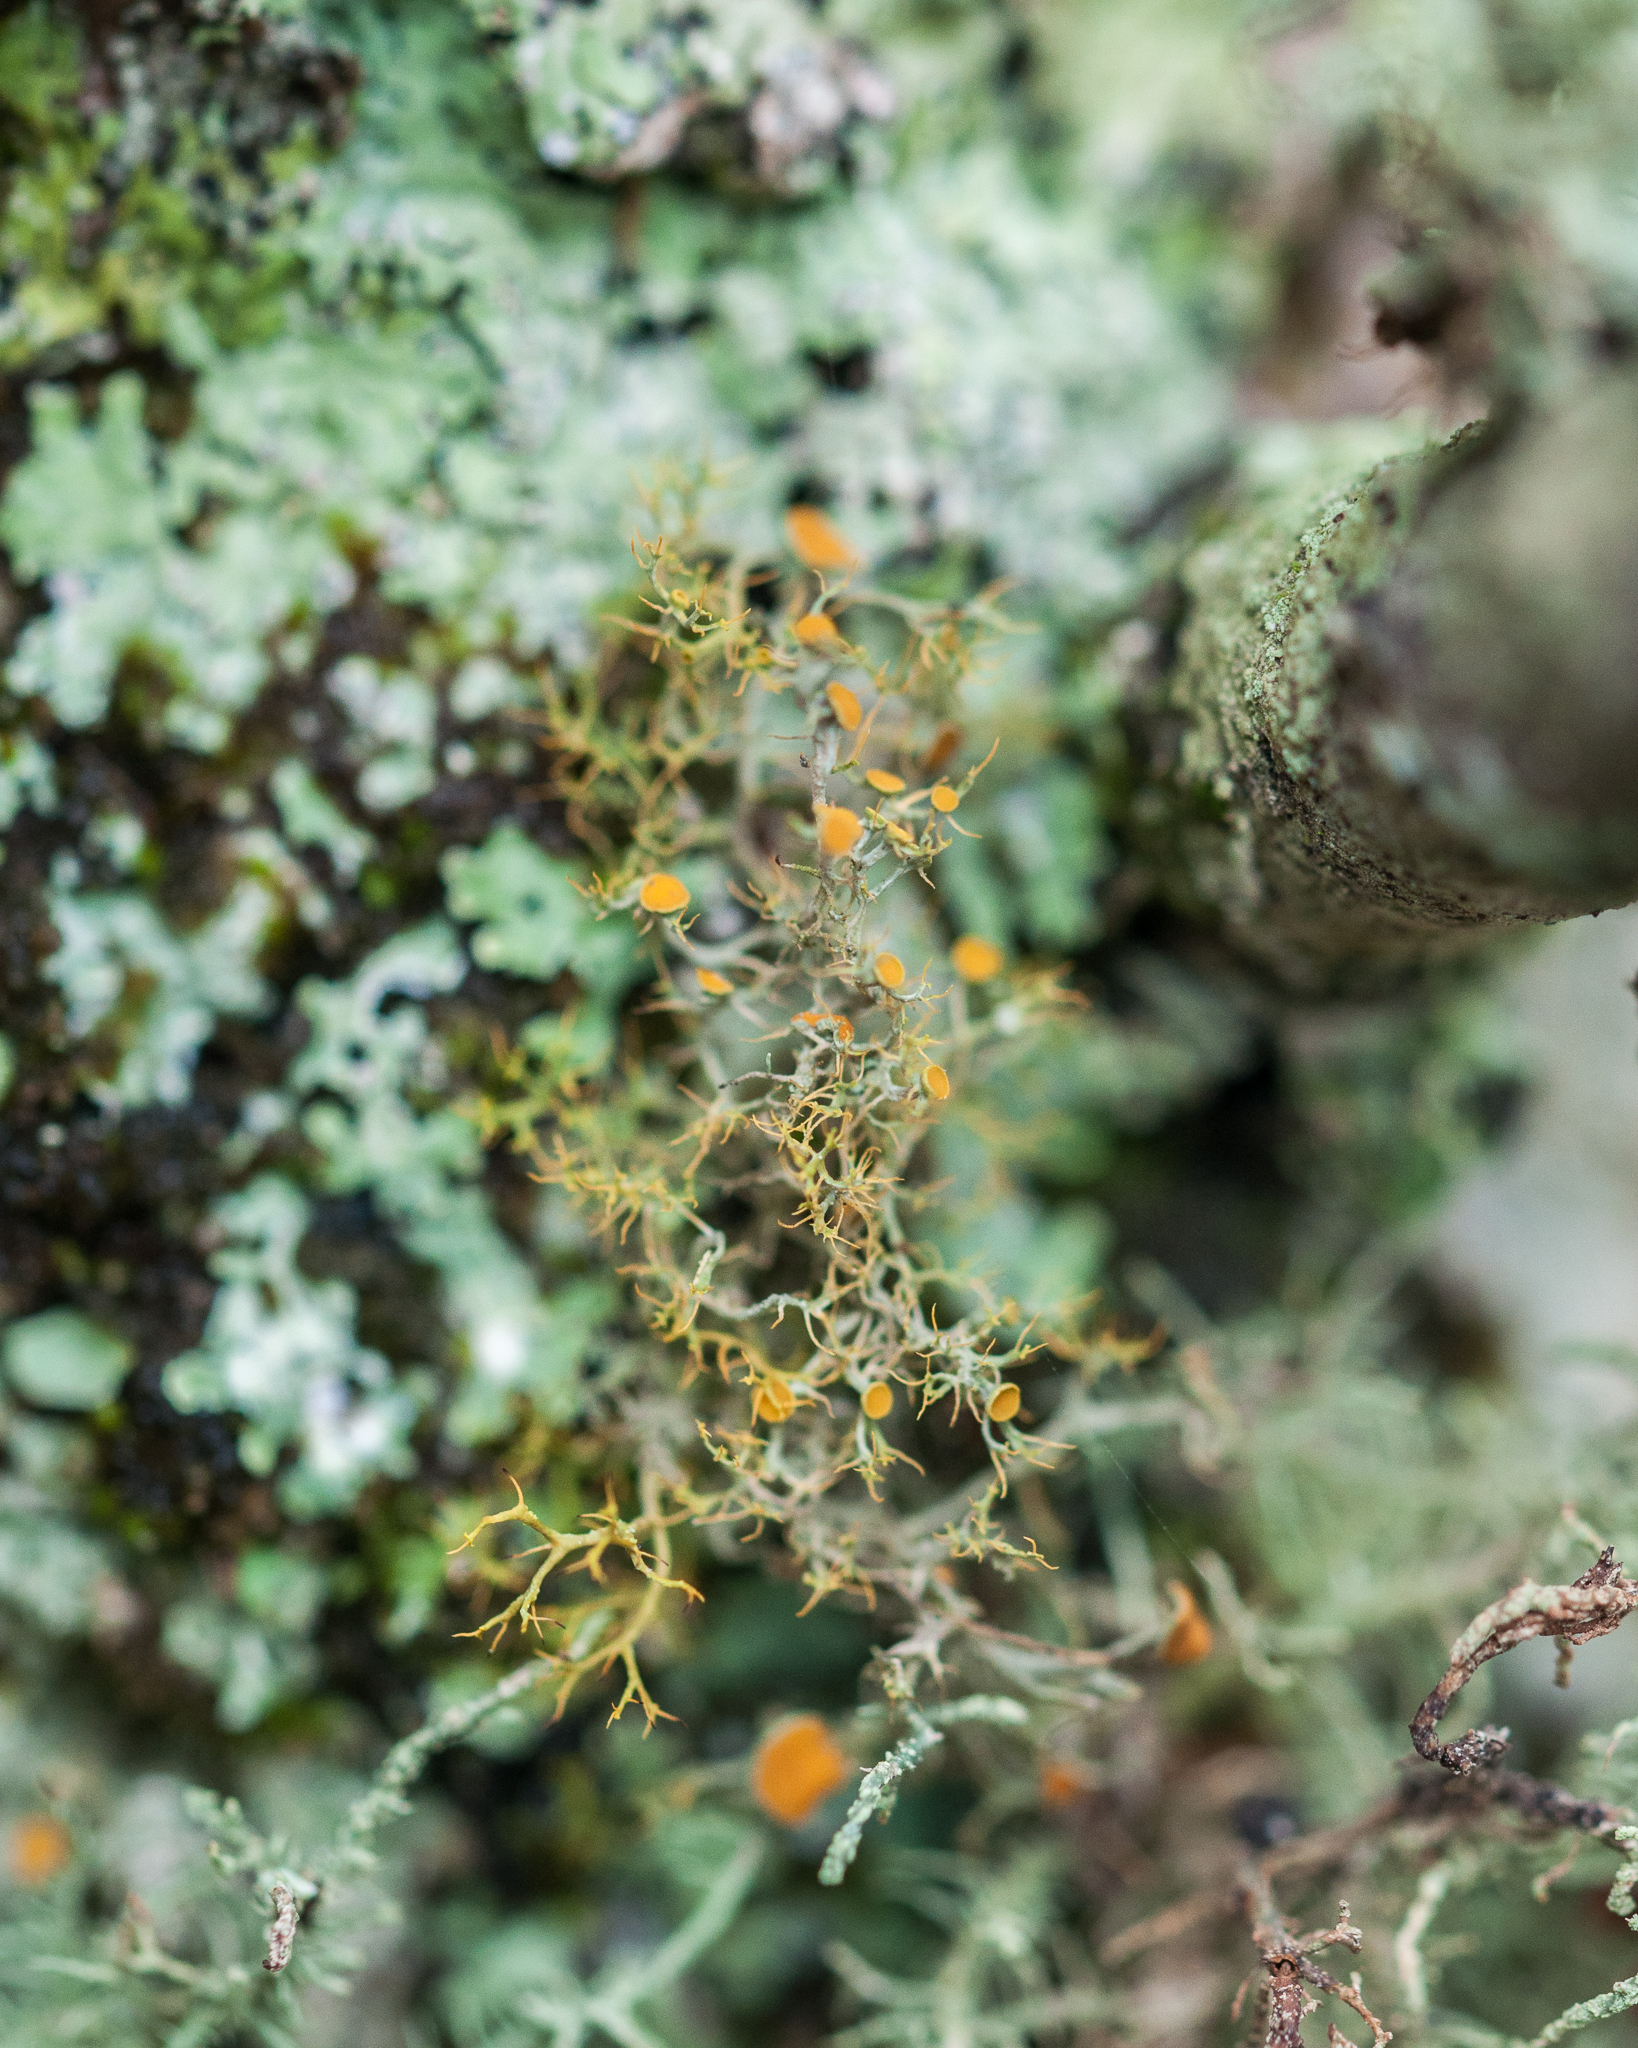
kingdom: Fungi
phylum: Ascomycota
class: Lecanoromycetes
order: Teloschistales
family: Teloschistaceae
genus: Teloschistes
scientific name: Teloschistes inflatus
